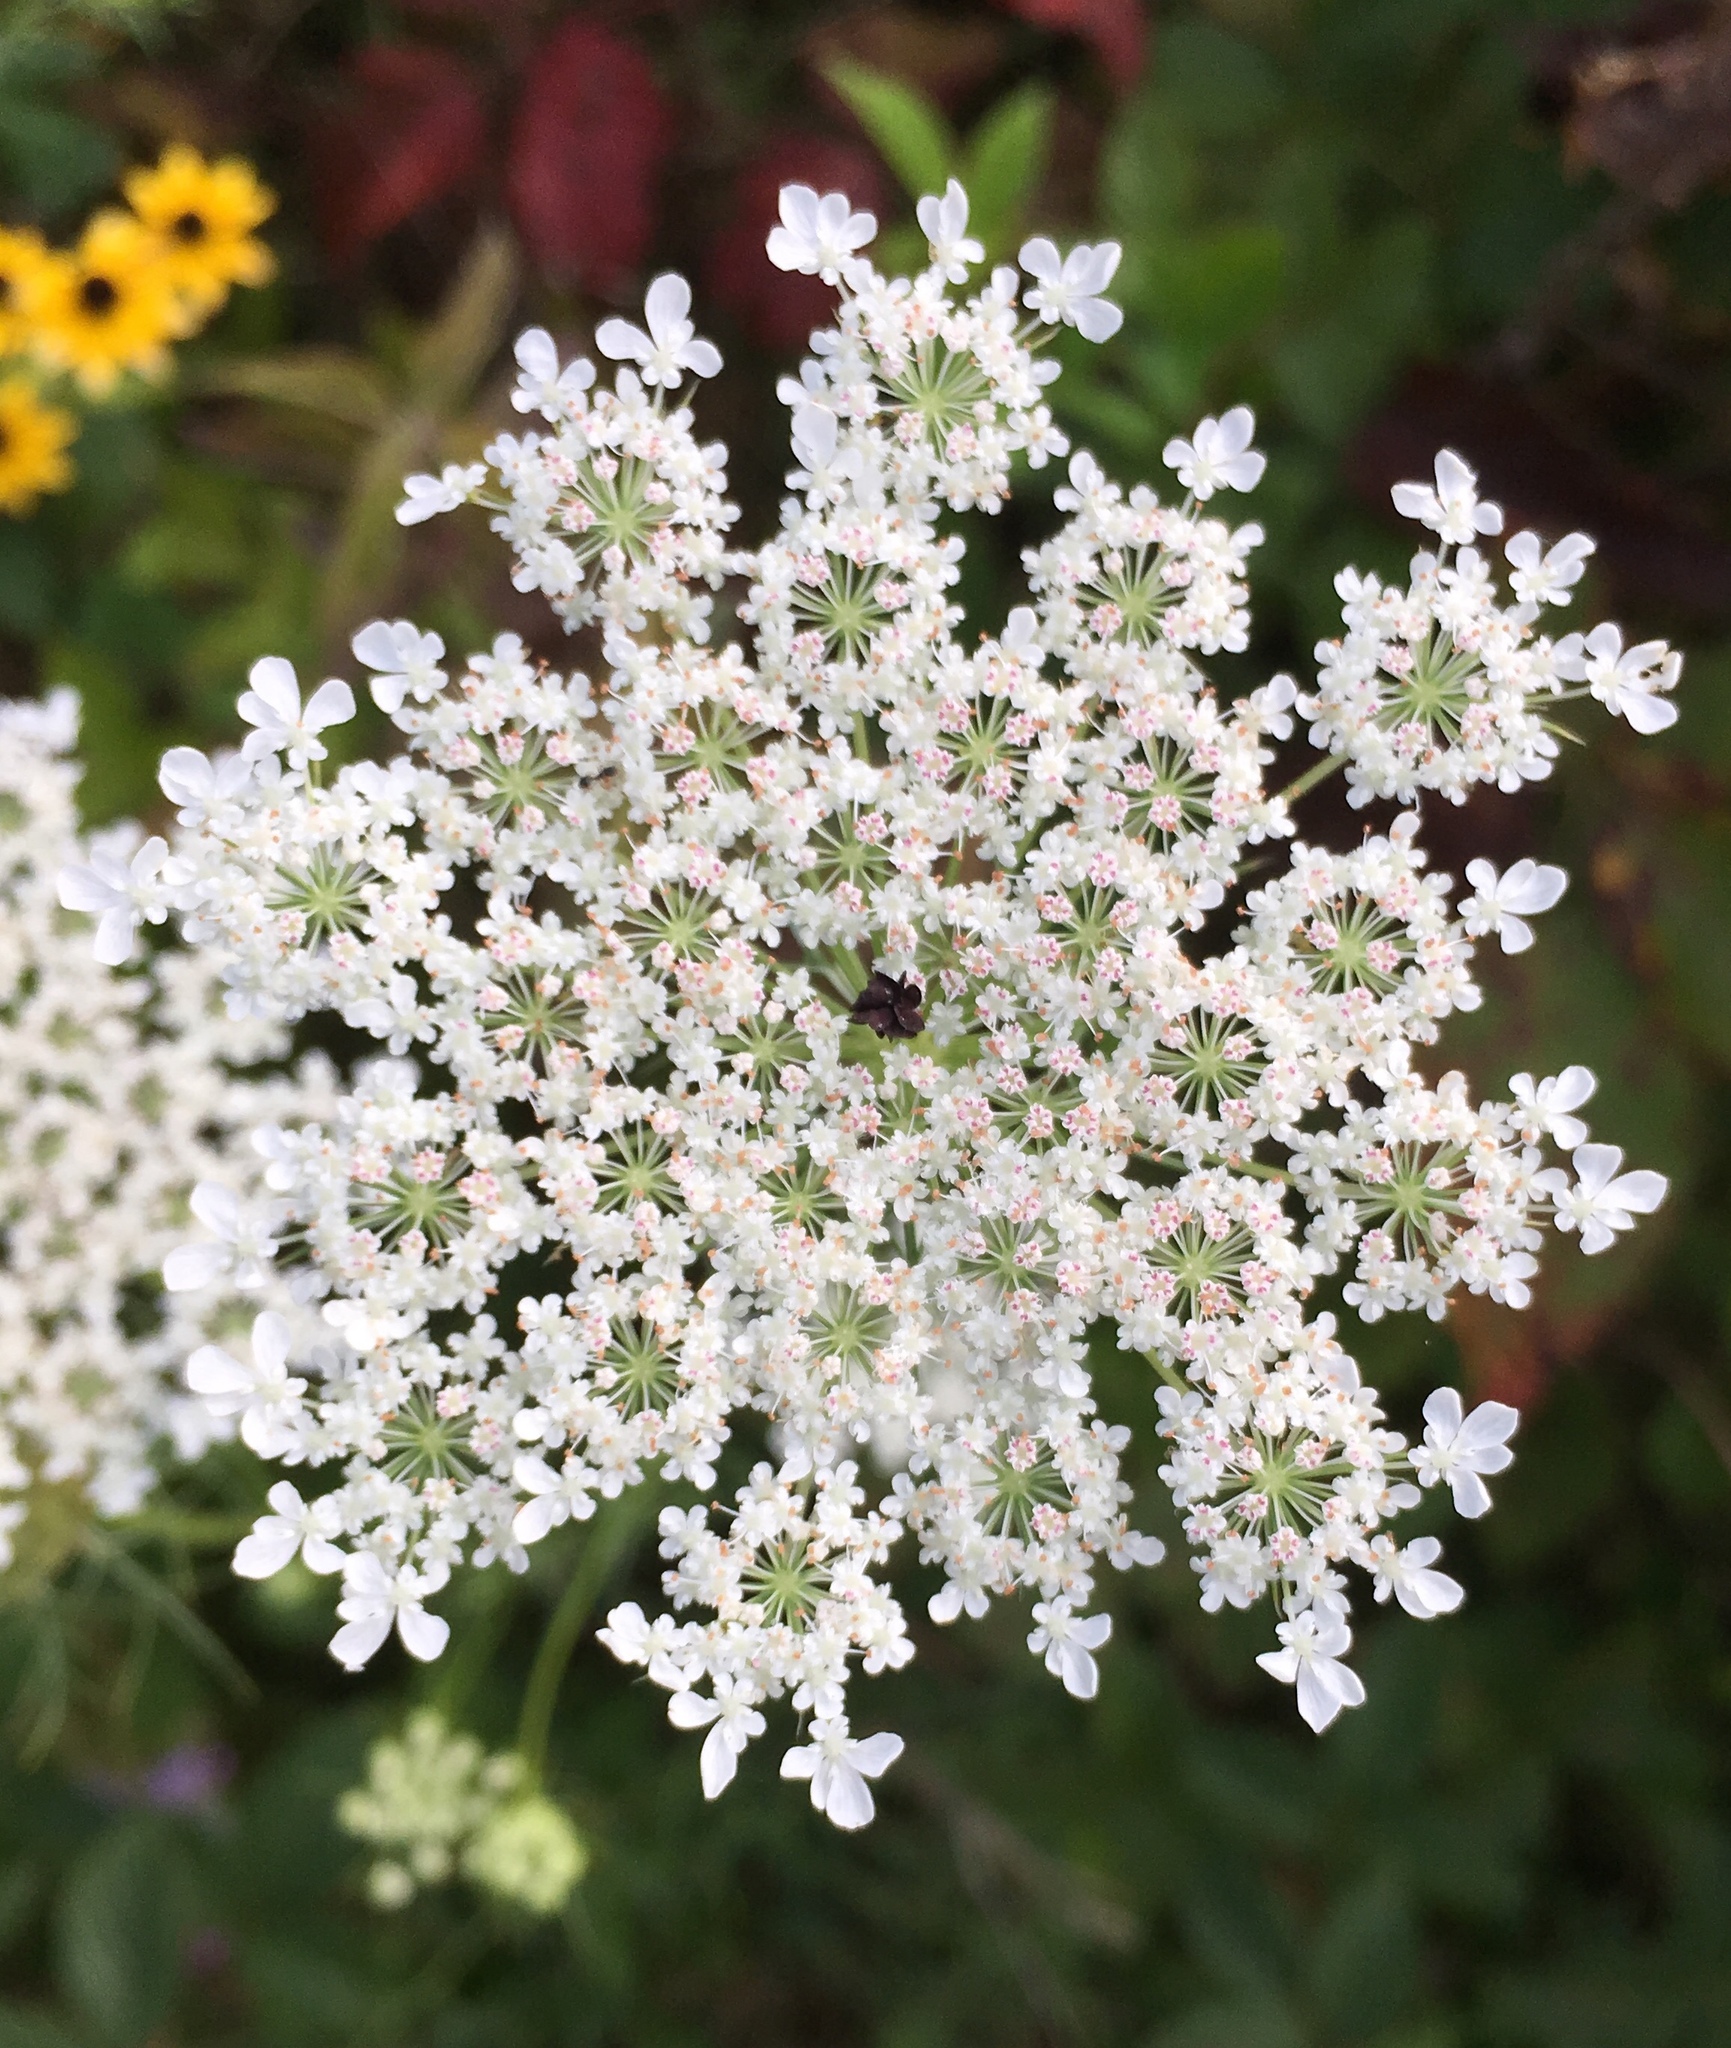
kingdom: Plantae
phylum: Tracheophyta
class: Magnoliopsida
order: Apiales
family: Apiaceae
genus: Daucus
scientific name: Daucus carota
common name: Wild carrot
